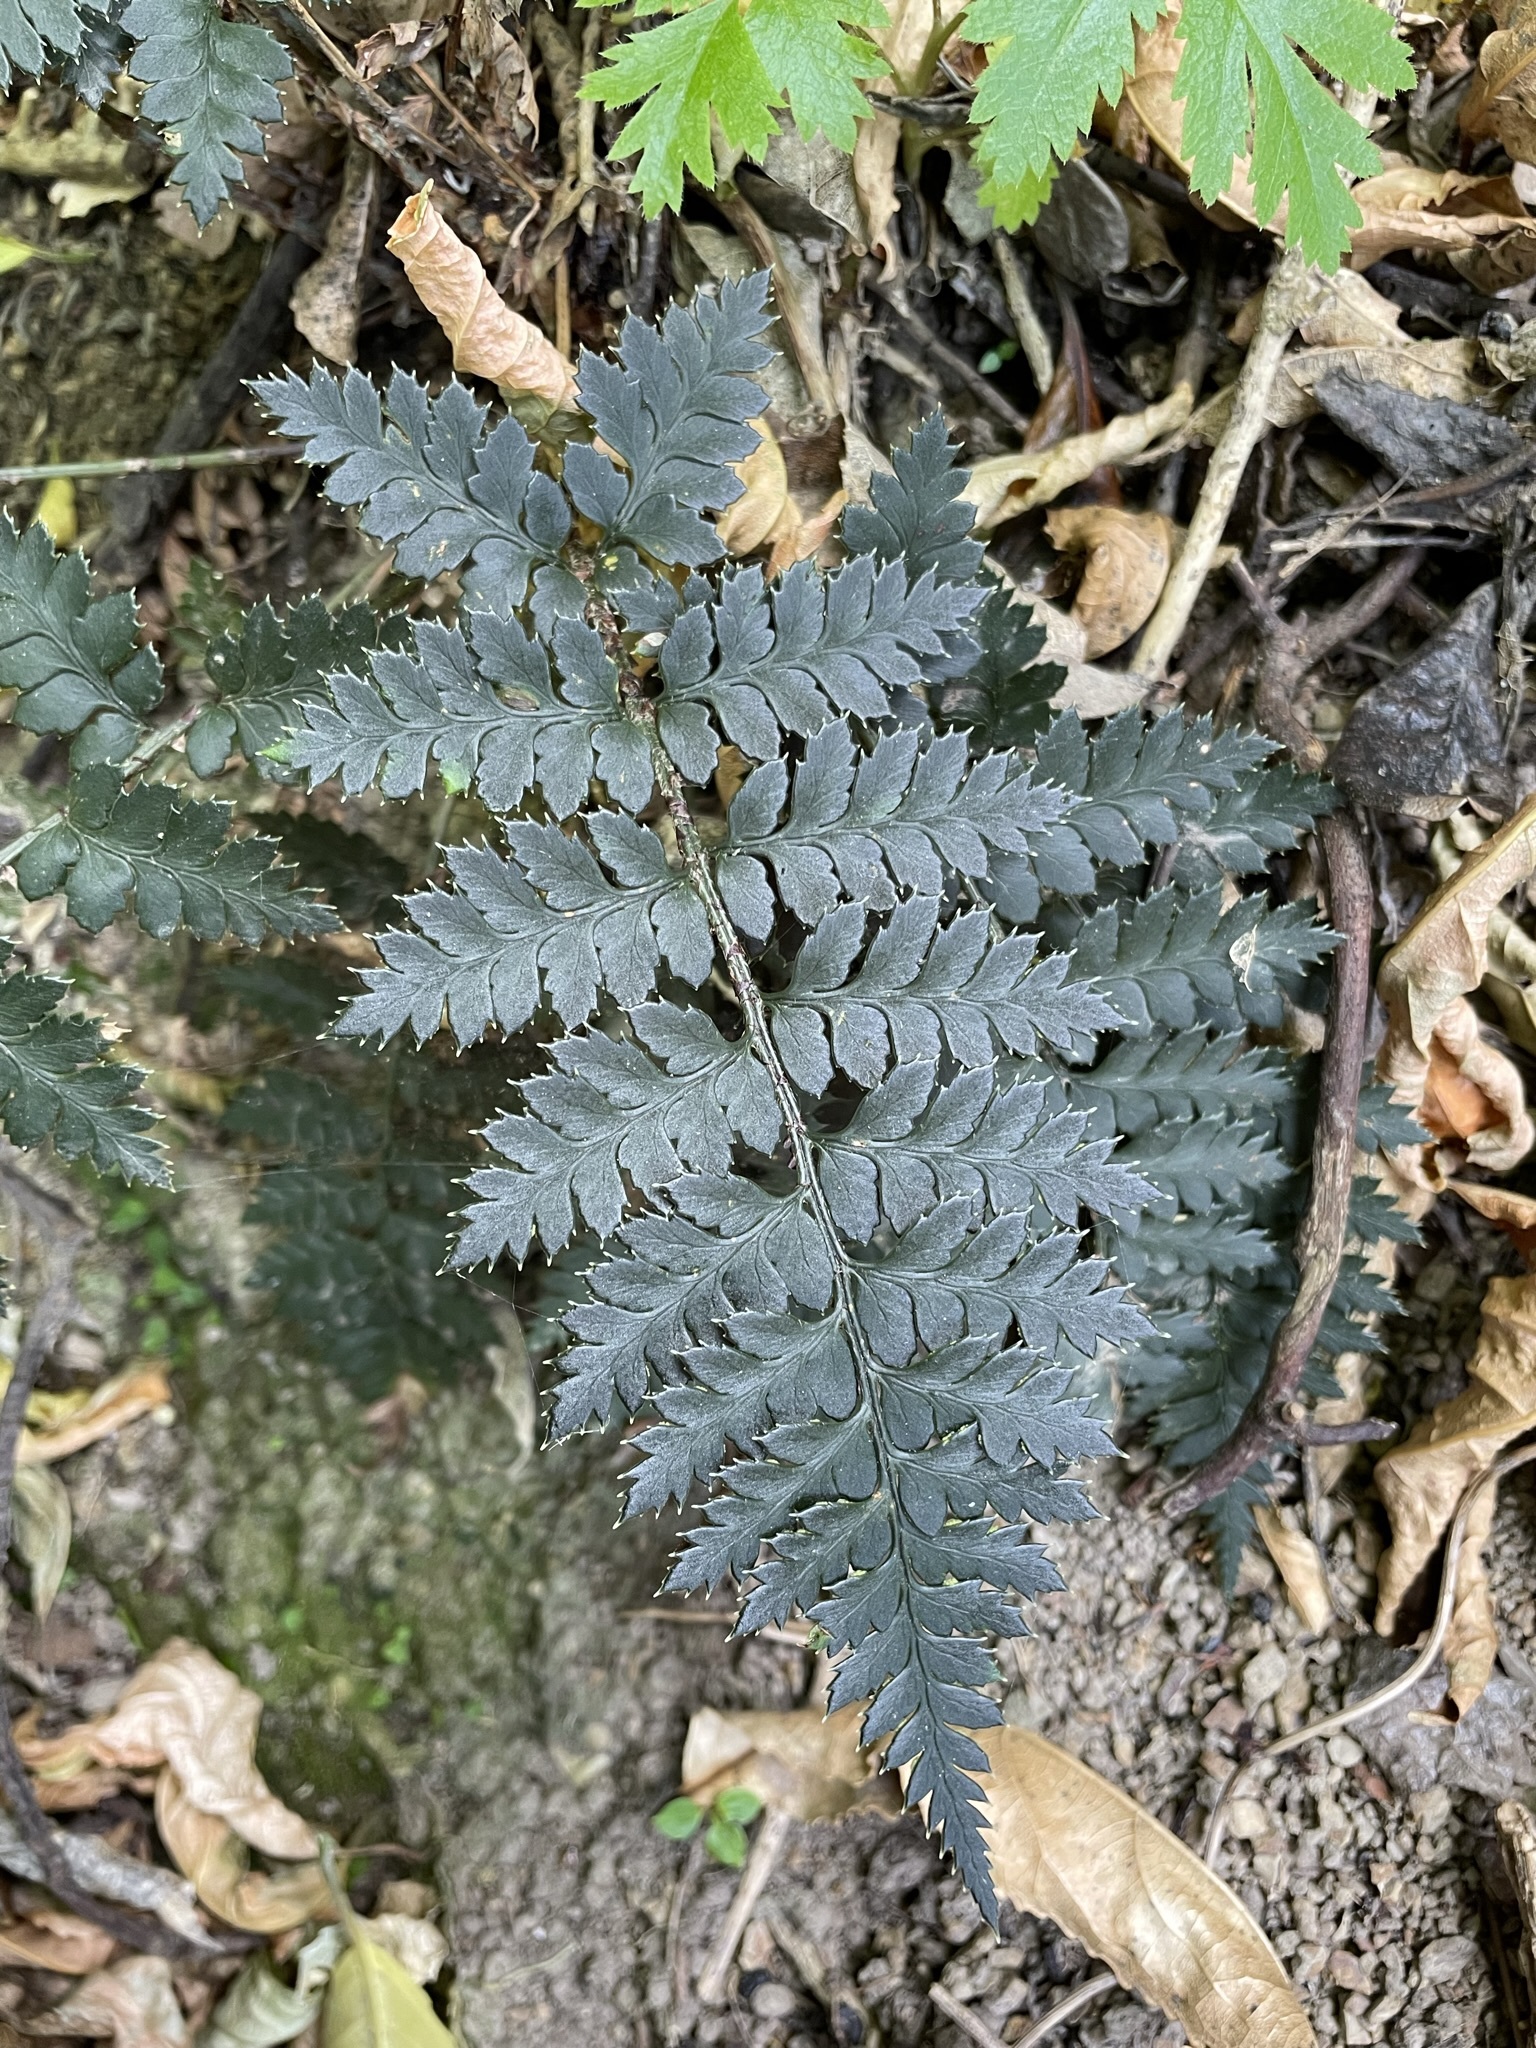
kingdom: Plantae
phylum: Tracheophyta
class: Polypodiopsida
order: Polypodiales
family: Dryopteridaceae
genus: Polystichum
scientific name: Polystichum oculatum
